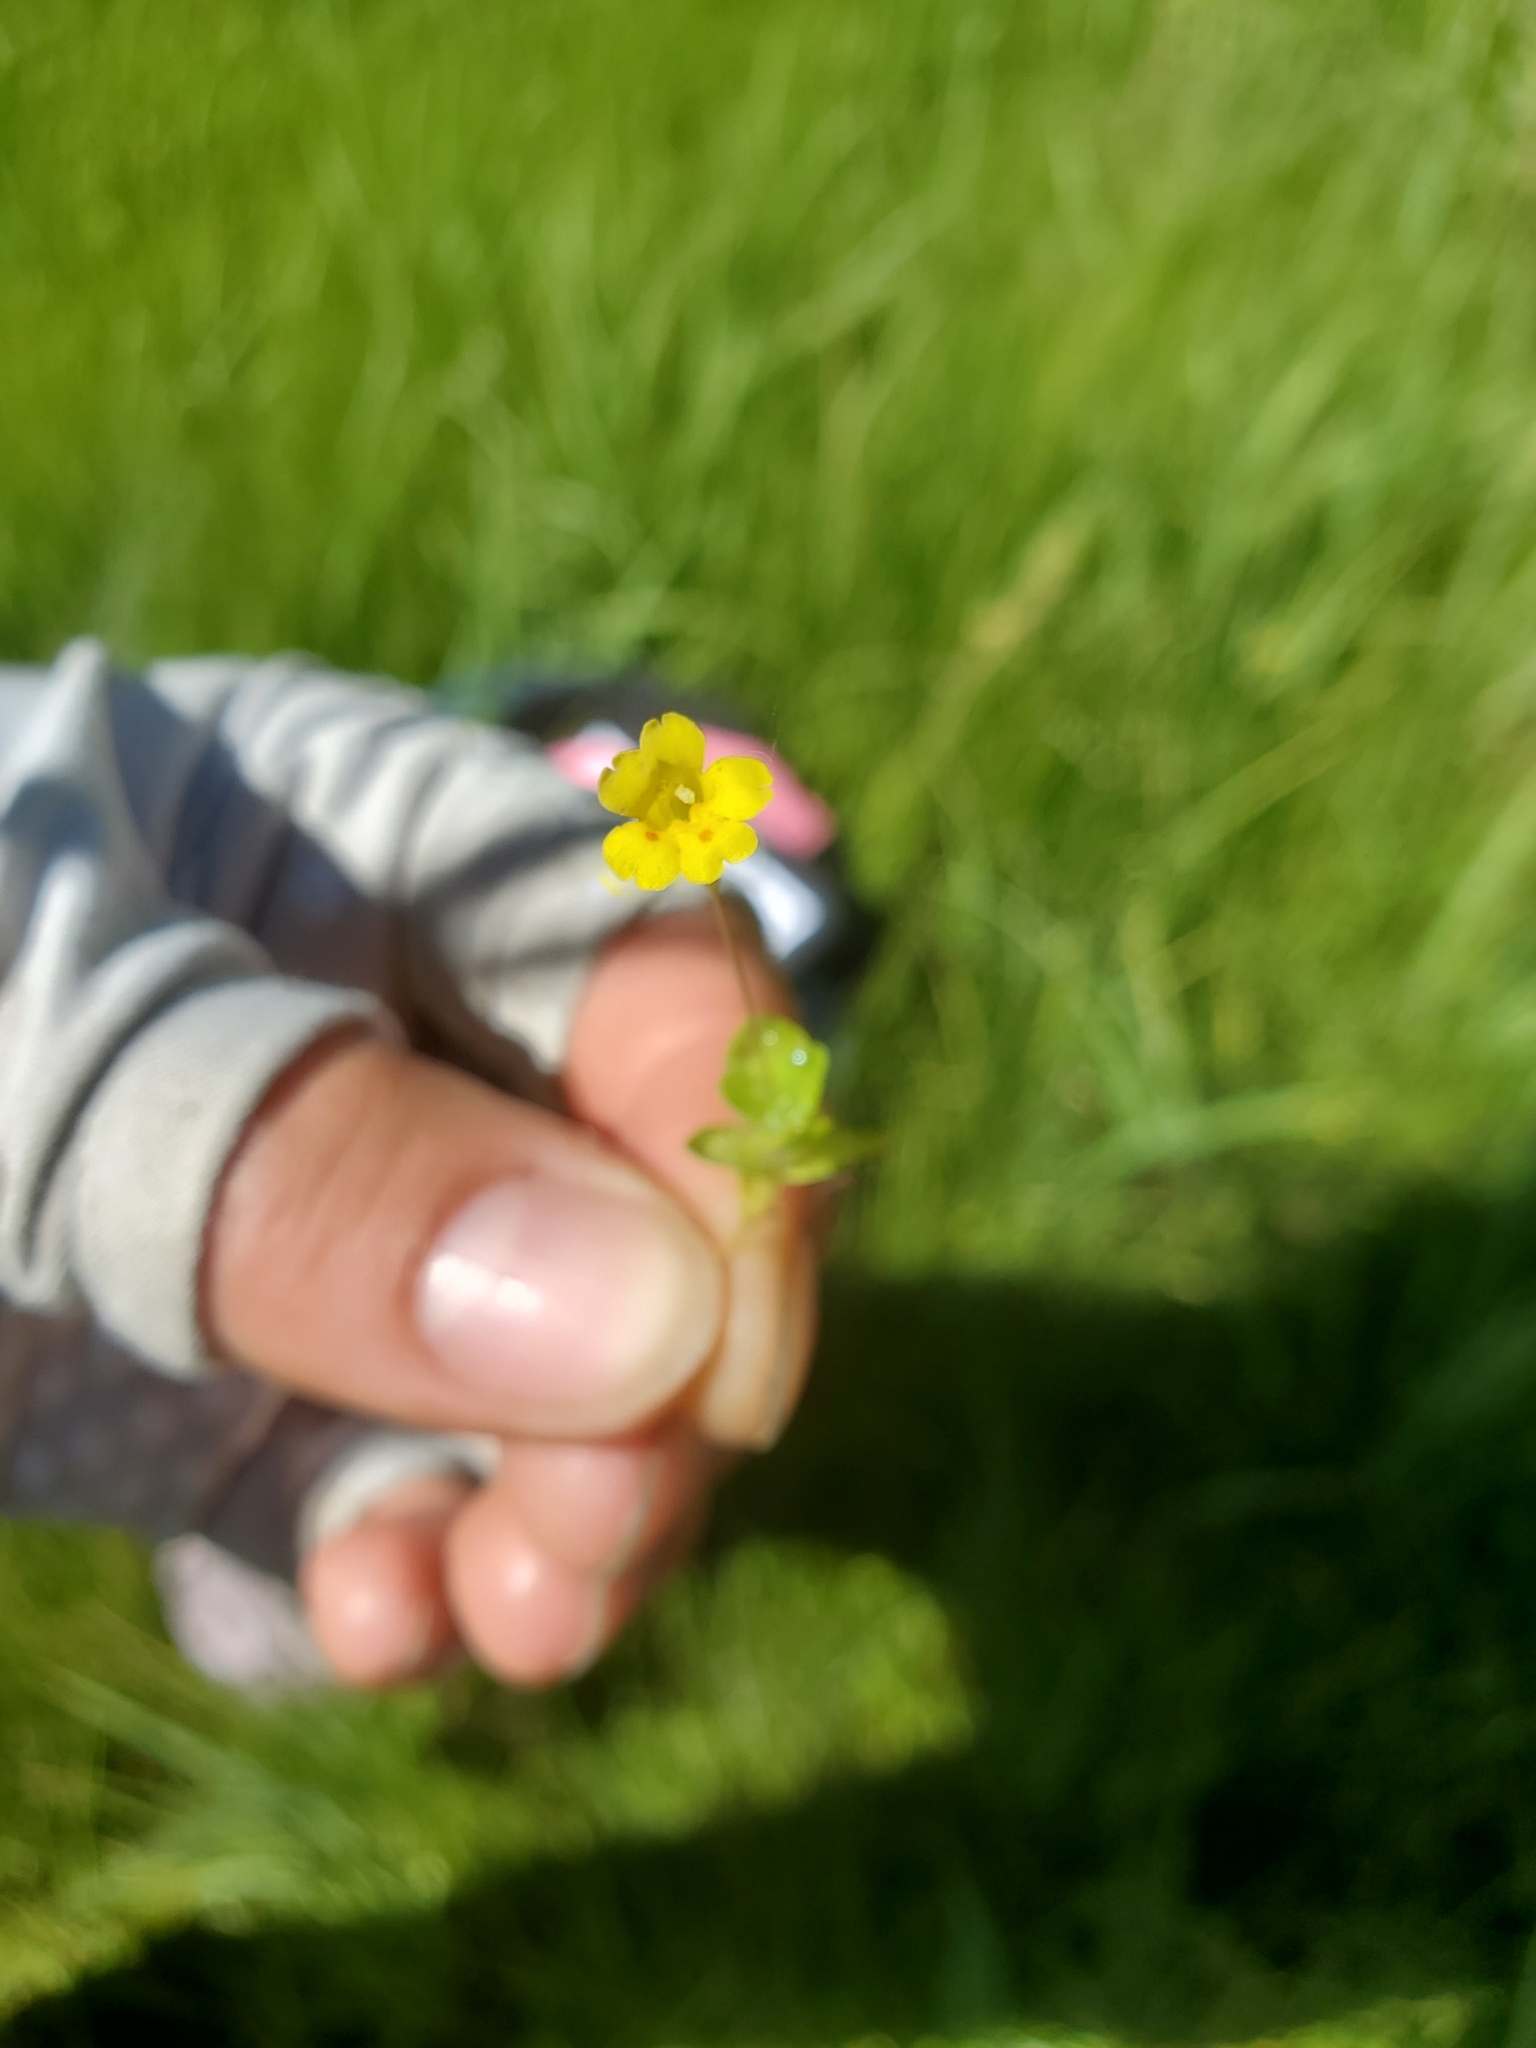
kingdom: Plantae
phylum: Tracheophyta
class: Magnoliopsida
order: Lamiales
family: Phrymaceae
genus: Erythranthe
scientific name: Erythranthe primuloides
